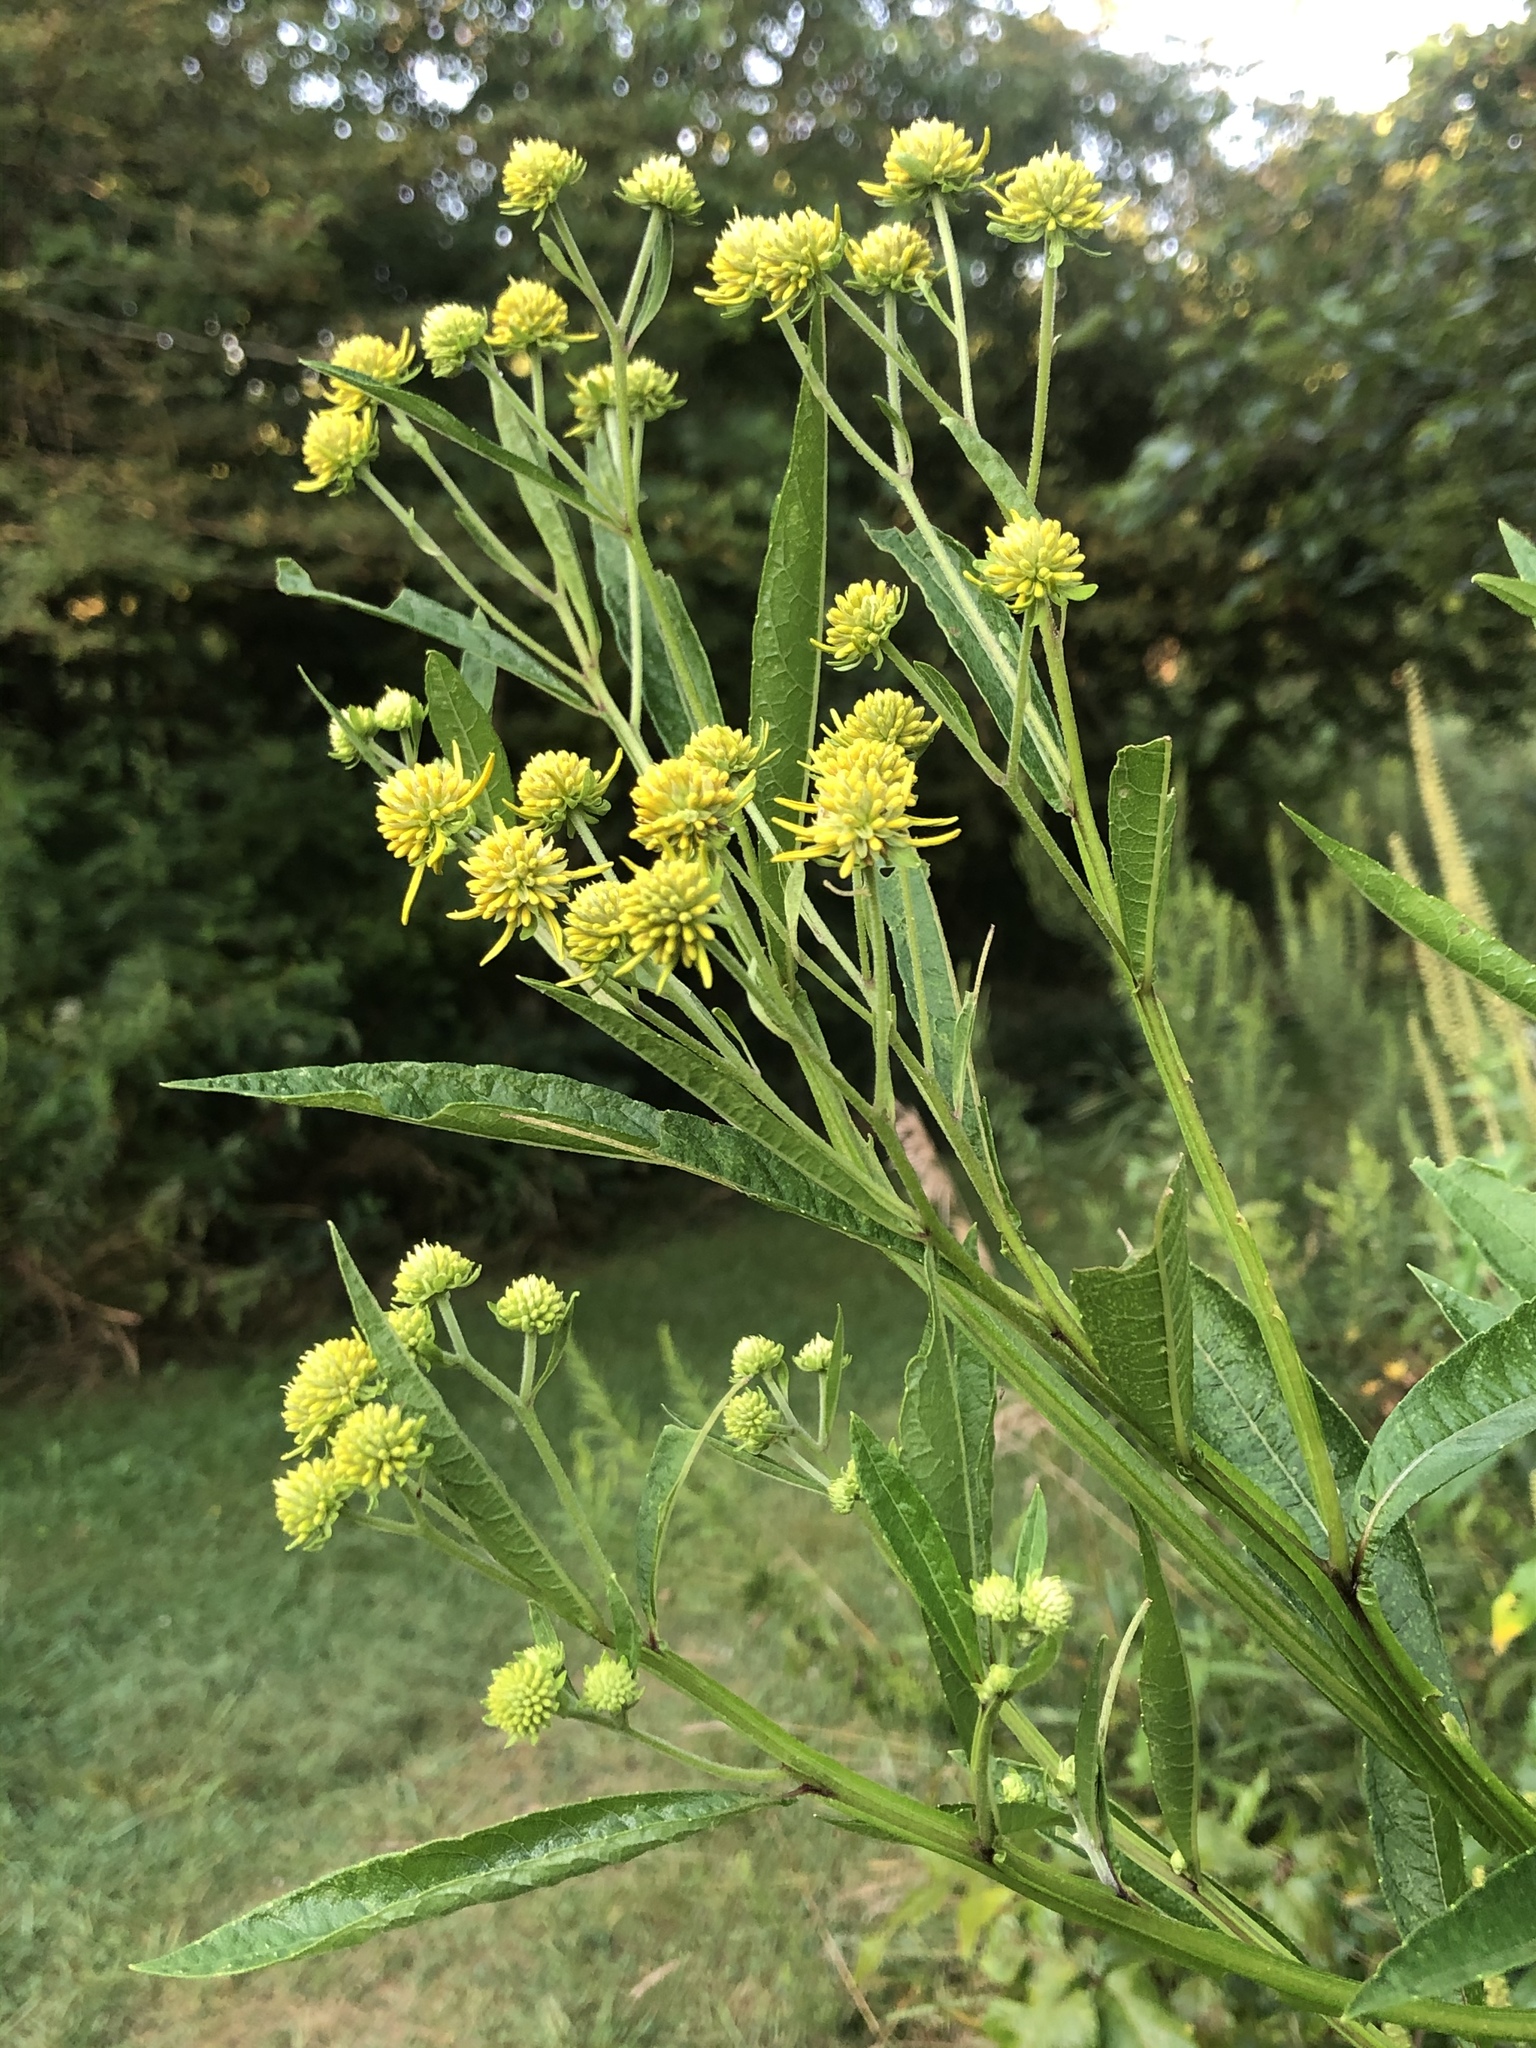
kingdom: Plantae
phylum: Tracheophyta
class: Magnoliopsida
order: Asterales
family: Asteraceae
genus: Verbesina
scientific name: Verbesina alternifolia
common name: Wingstem
